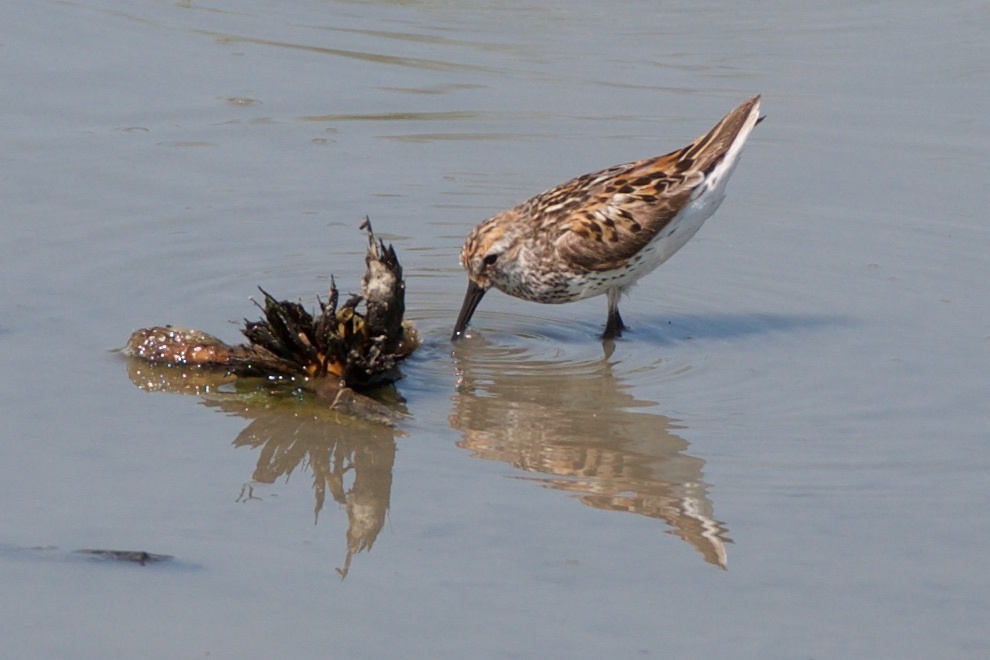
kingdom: Animalia
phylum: Chordata
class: Aves
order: Charadriiformes
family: Scolopacidae
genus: Calidris
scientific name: Calidris mauri
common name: Western sandpiper
